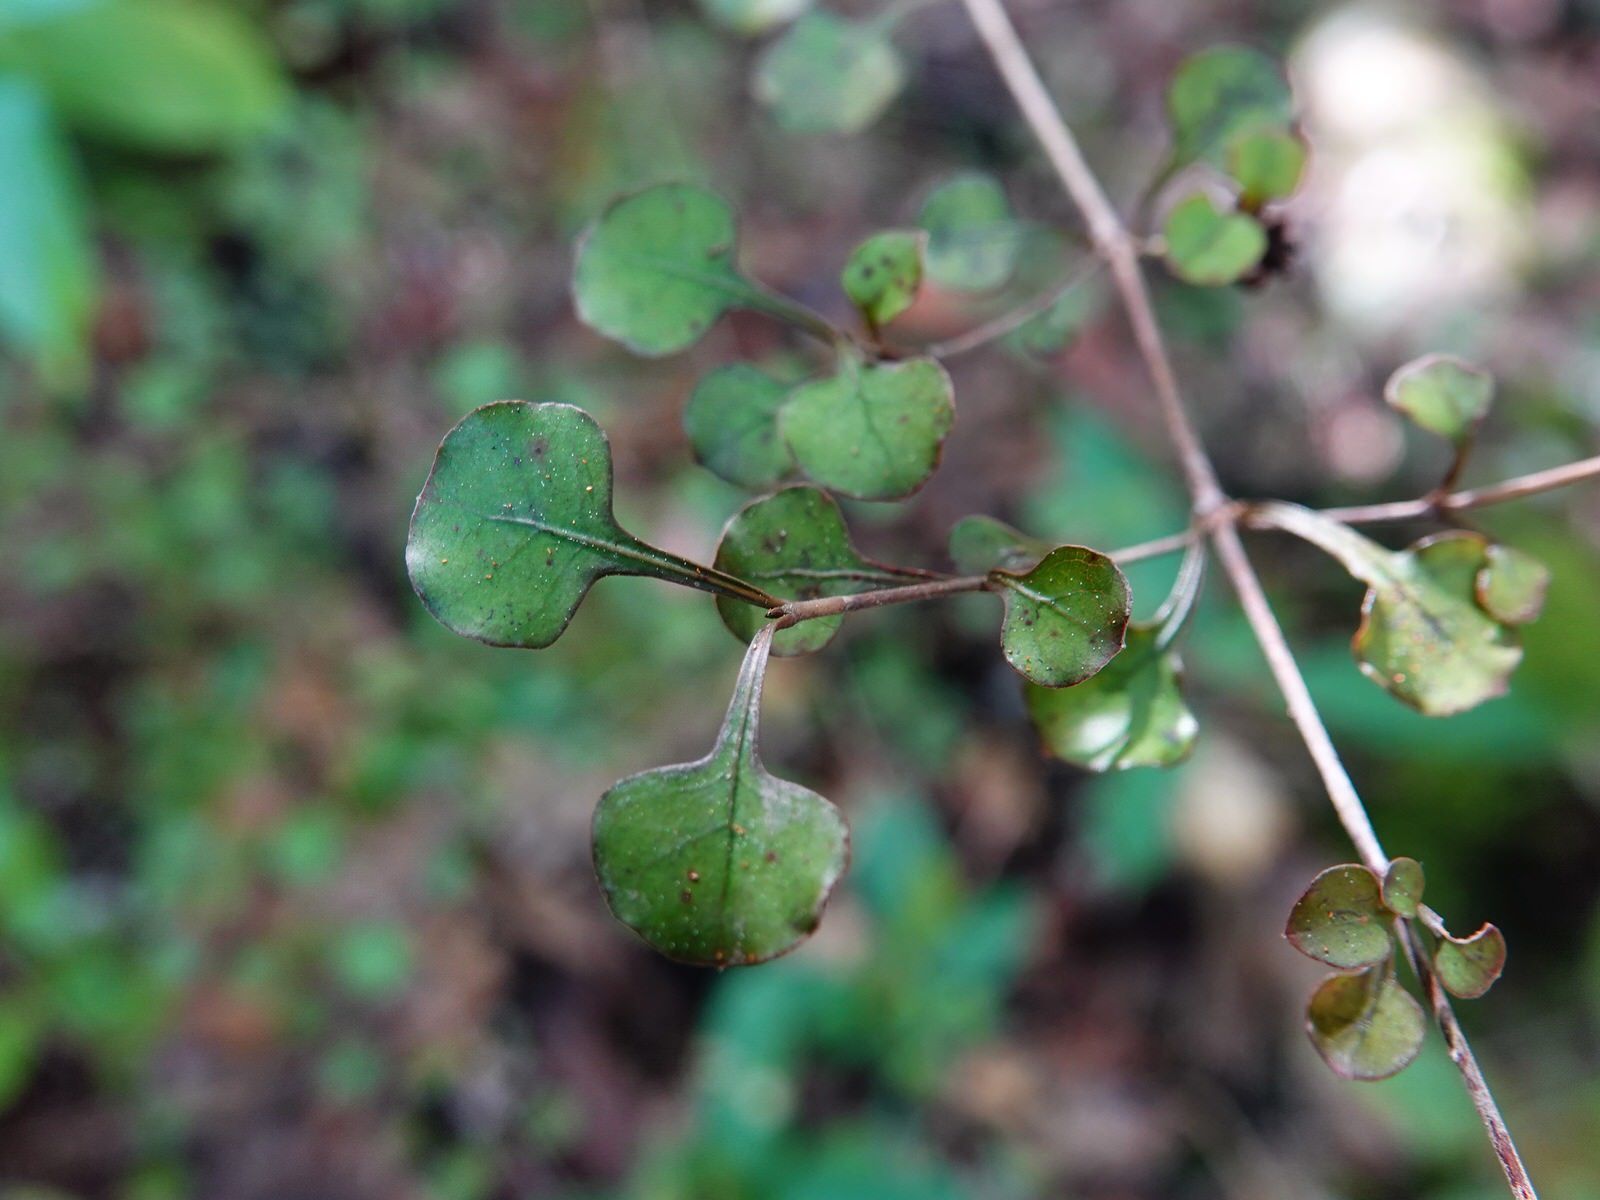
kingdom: Plantae
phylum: Tracheophyta
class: Magnoliopsida
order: Gentianales
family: Rubiaceae
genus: Coprosma
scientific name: Coprosma spathulata
